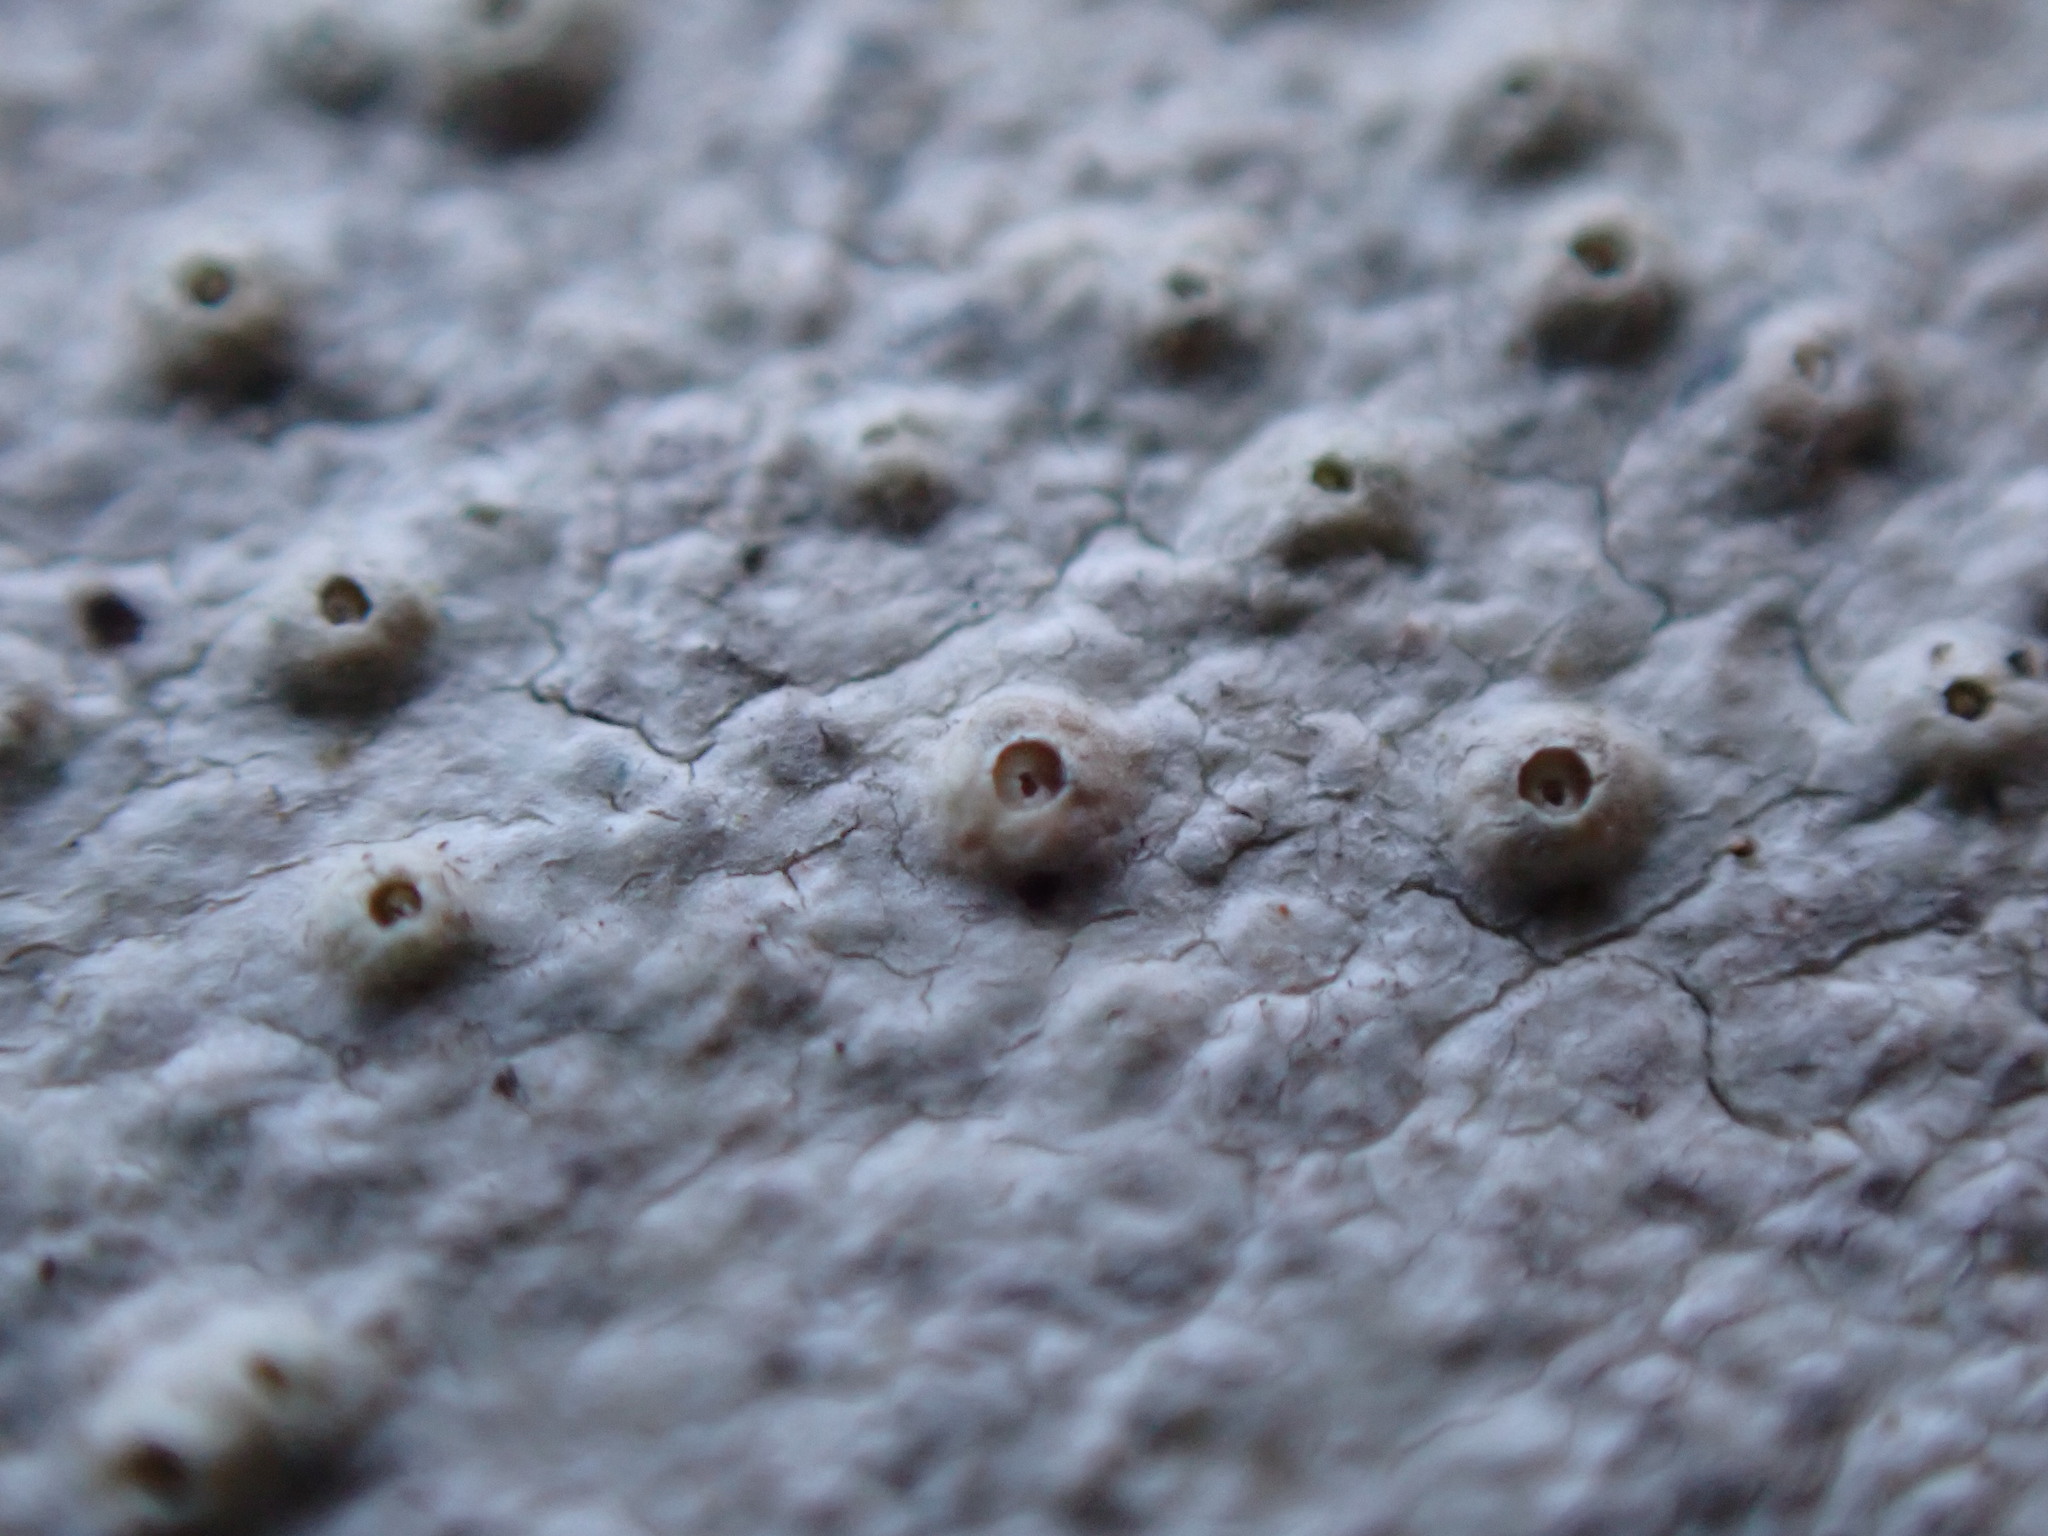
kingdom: Fungi
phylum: Ascomycota
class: Lecanoromycetes
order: Ostropales
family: Graphidaceae
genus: Thelotrema
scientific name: Thelotrema lepadinum
